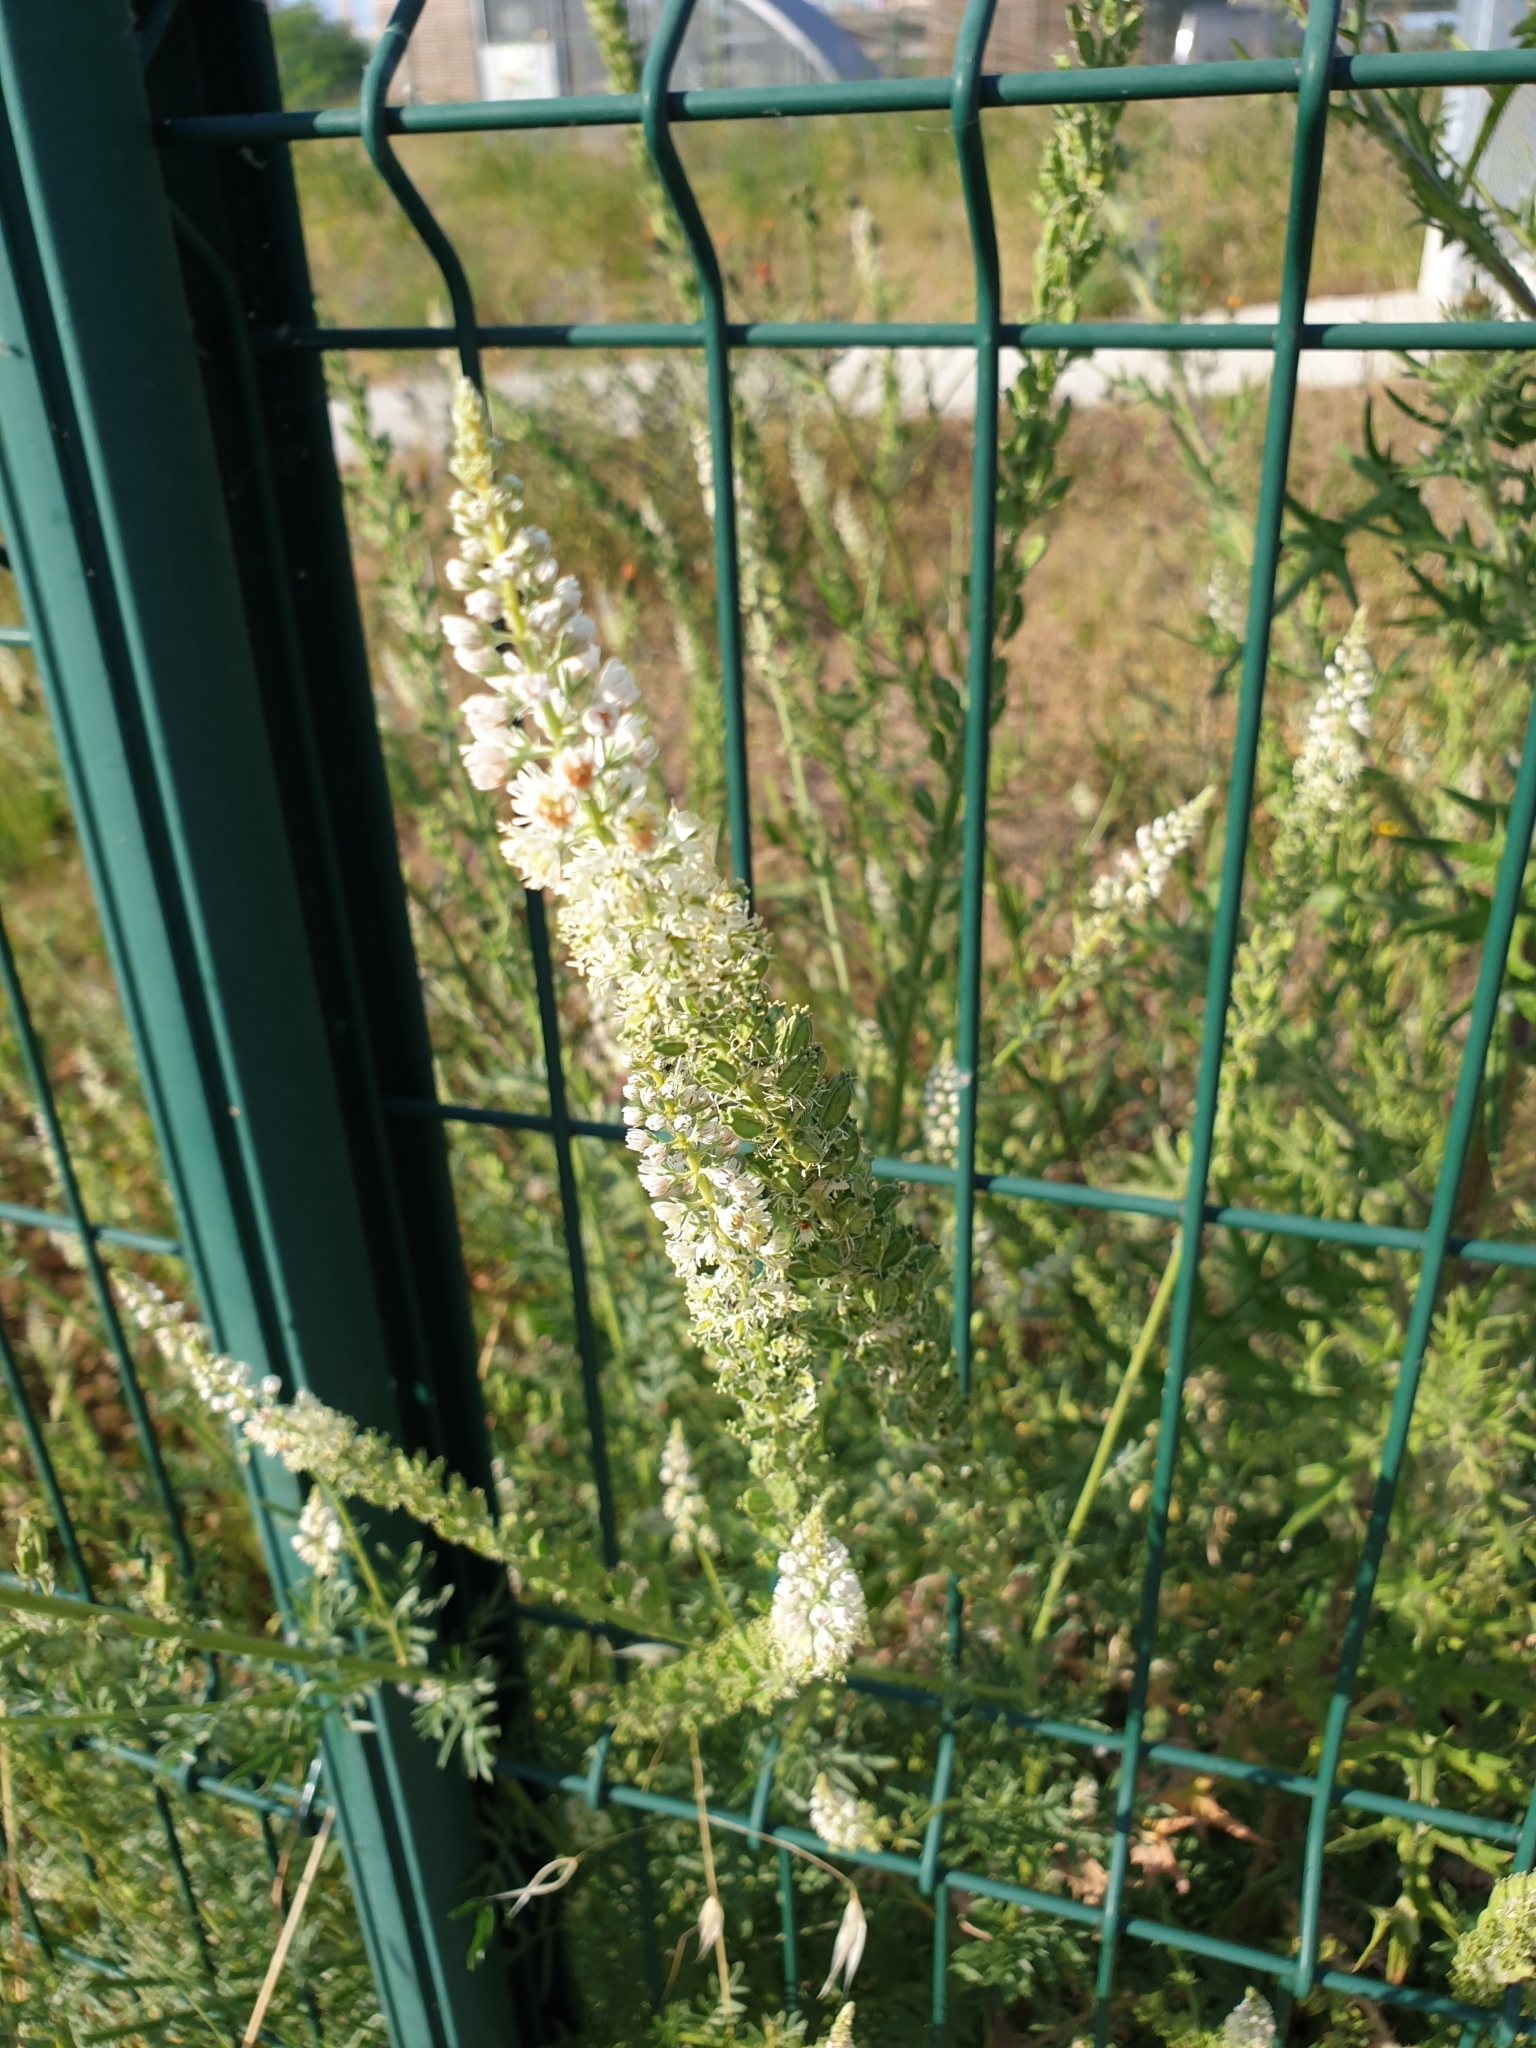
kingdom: Plantae
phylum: Tracheophyta
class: Magnoliopsida
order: Brassicales
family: Resedaceae
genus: Reseda
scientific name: Reseda alba
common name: White mignonette
